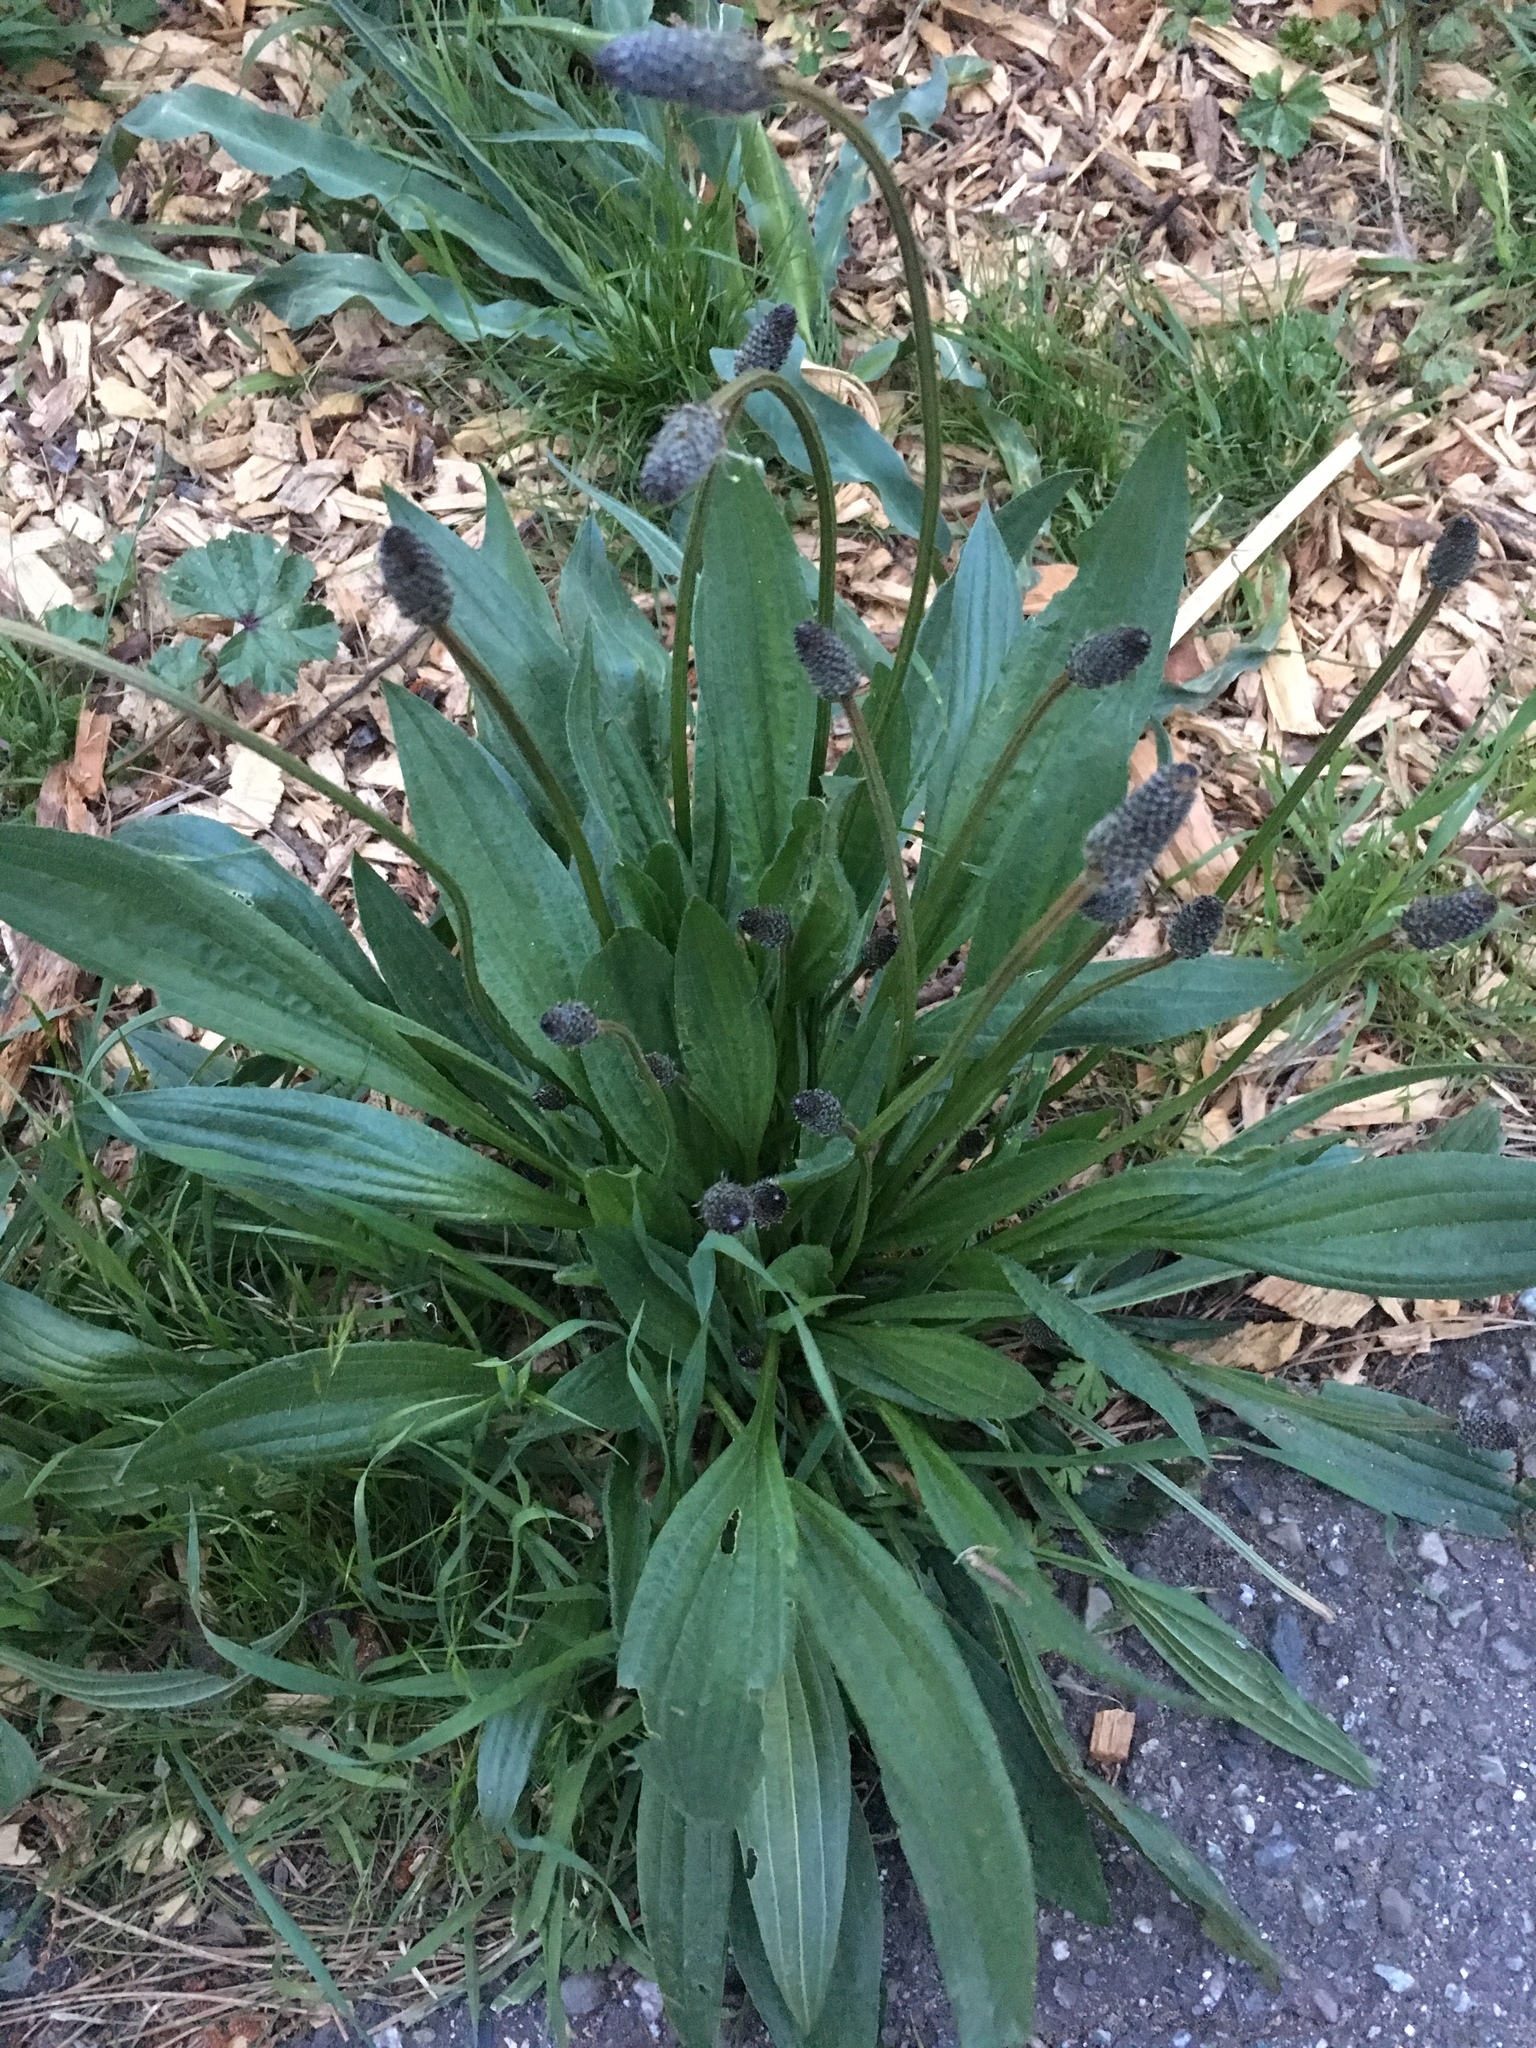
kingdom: Plantae
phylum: Tracheophyta
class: Magnoliopsida
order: Lamiales
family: Plantaginaceae
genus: Plantago
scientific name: Plantago lanceolata
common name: Ribwort plantain
